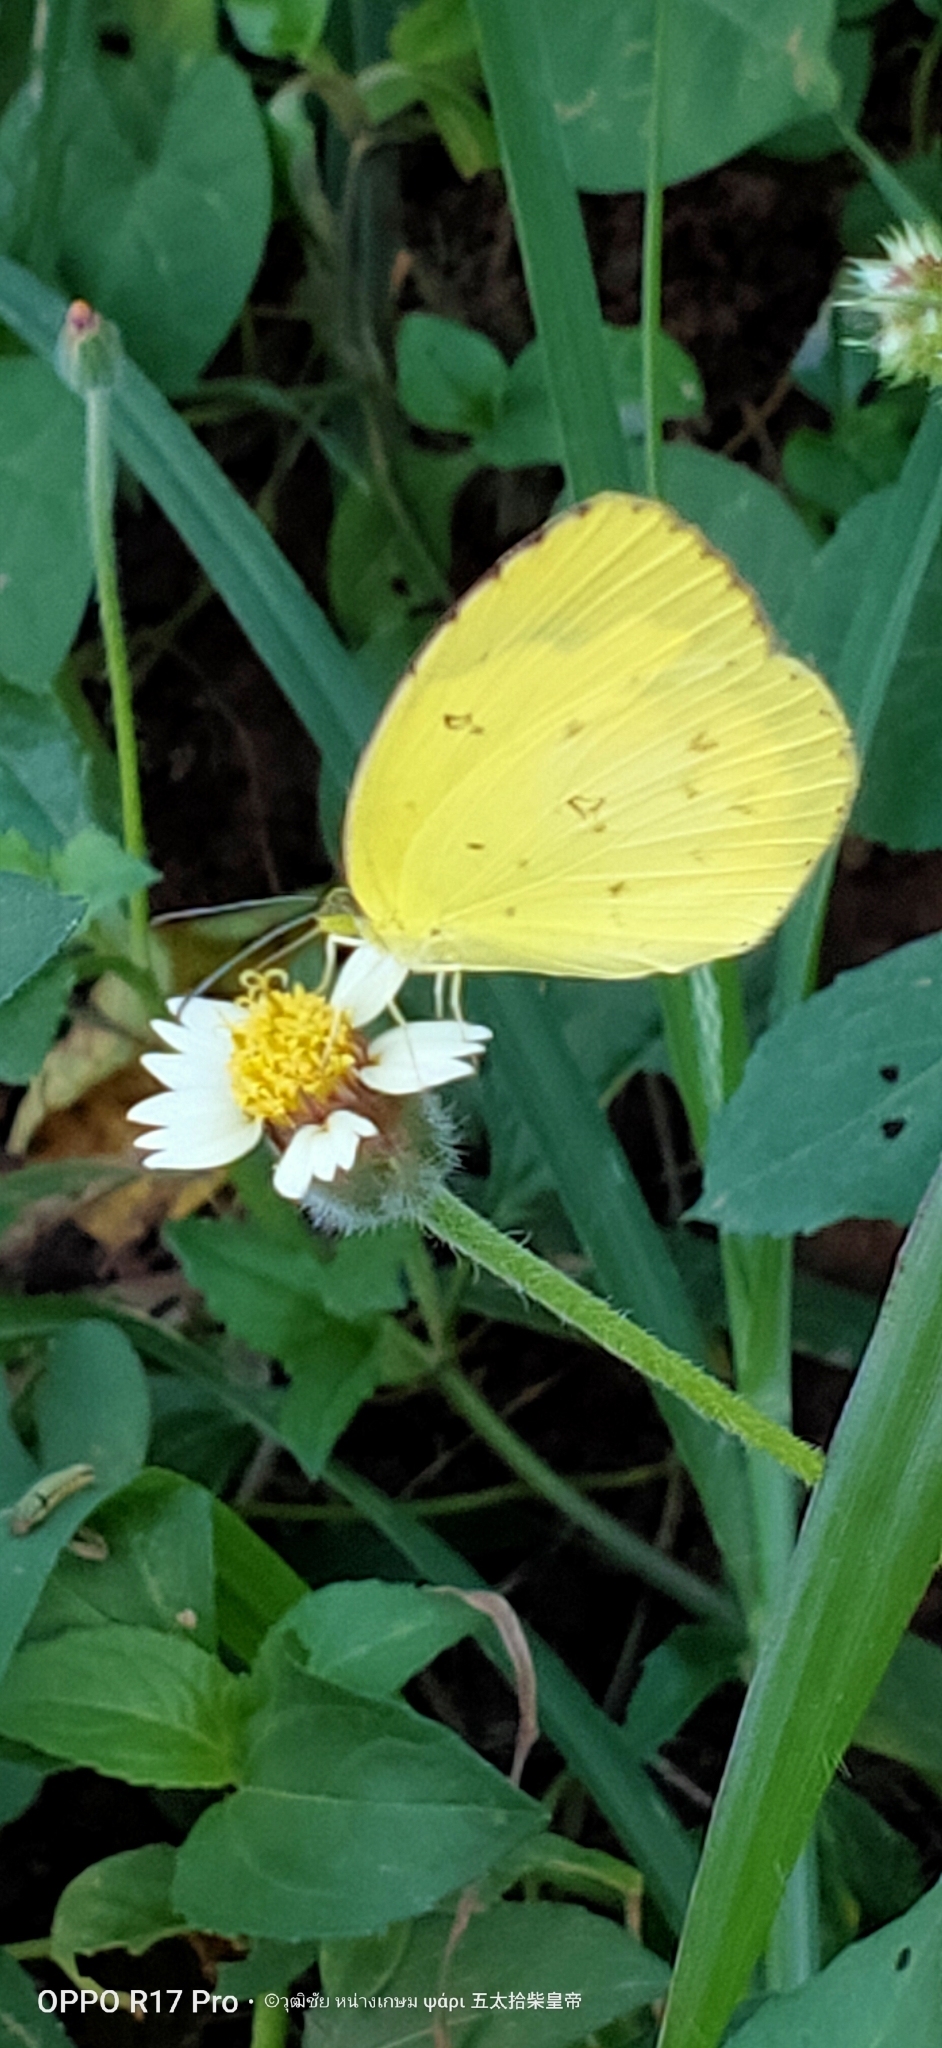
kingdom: Animalia
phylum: Arthropoda
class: Insecta
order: Lepidoptera
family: Pieridae
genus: Eurema
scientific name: Eurema hecabe
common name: Pale grass yellow
